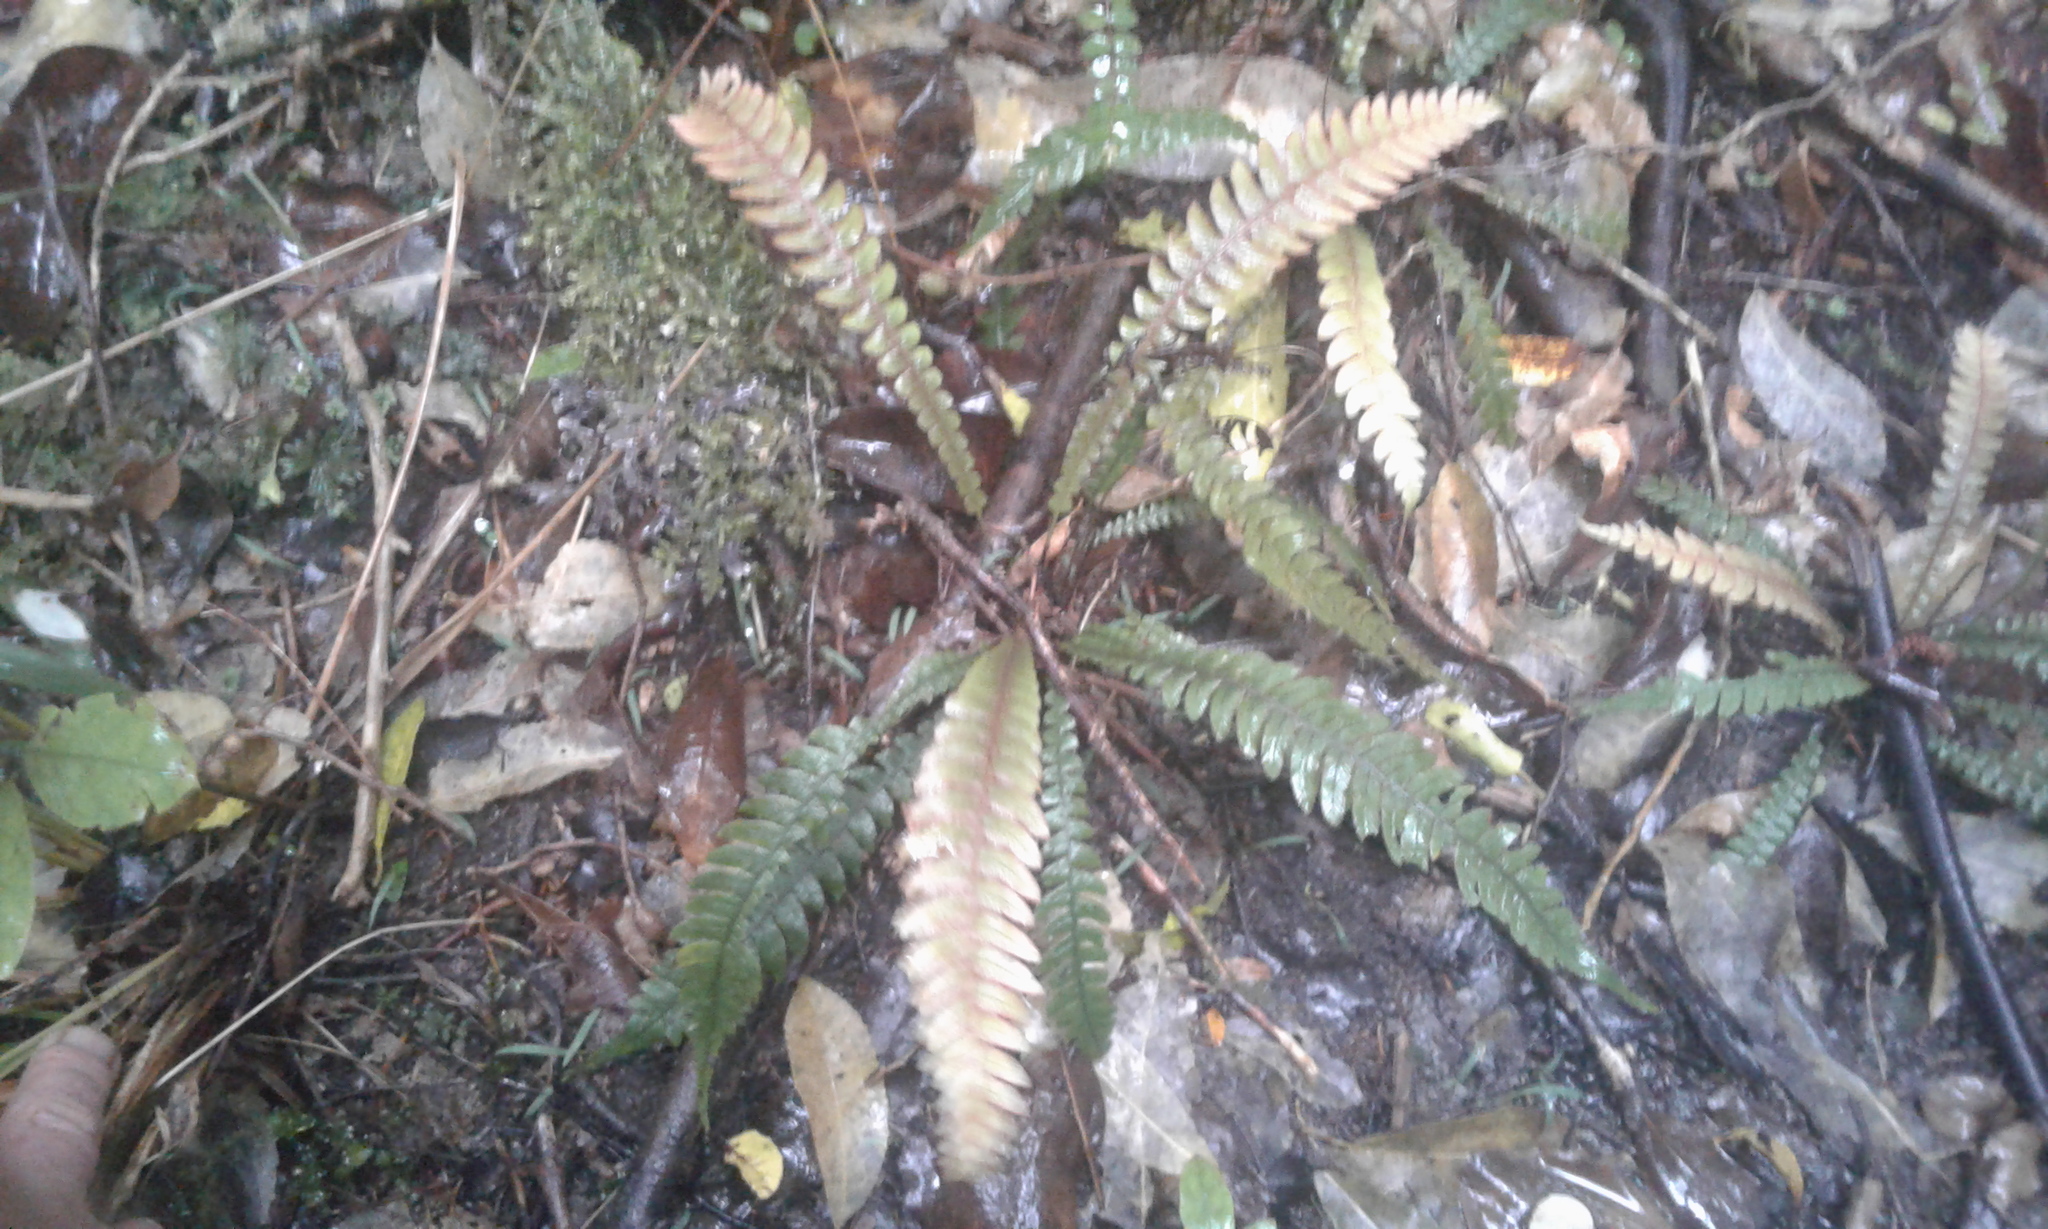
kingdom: Plantae
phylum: Tracheophyta
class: Polypodiopsida
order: Polypodiales
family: Blechnaceae
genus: Austroblechnum
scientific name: Austroblechnum lanceolatum
